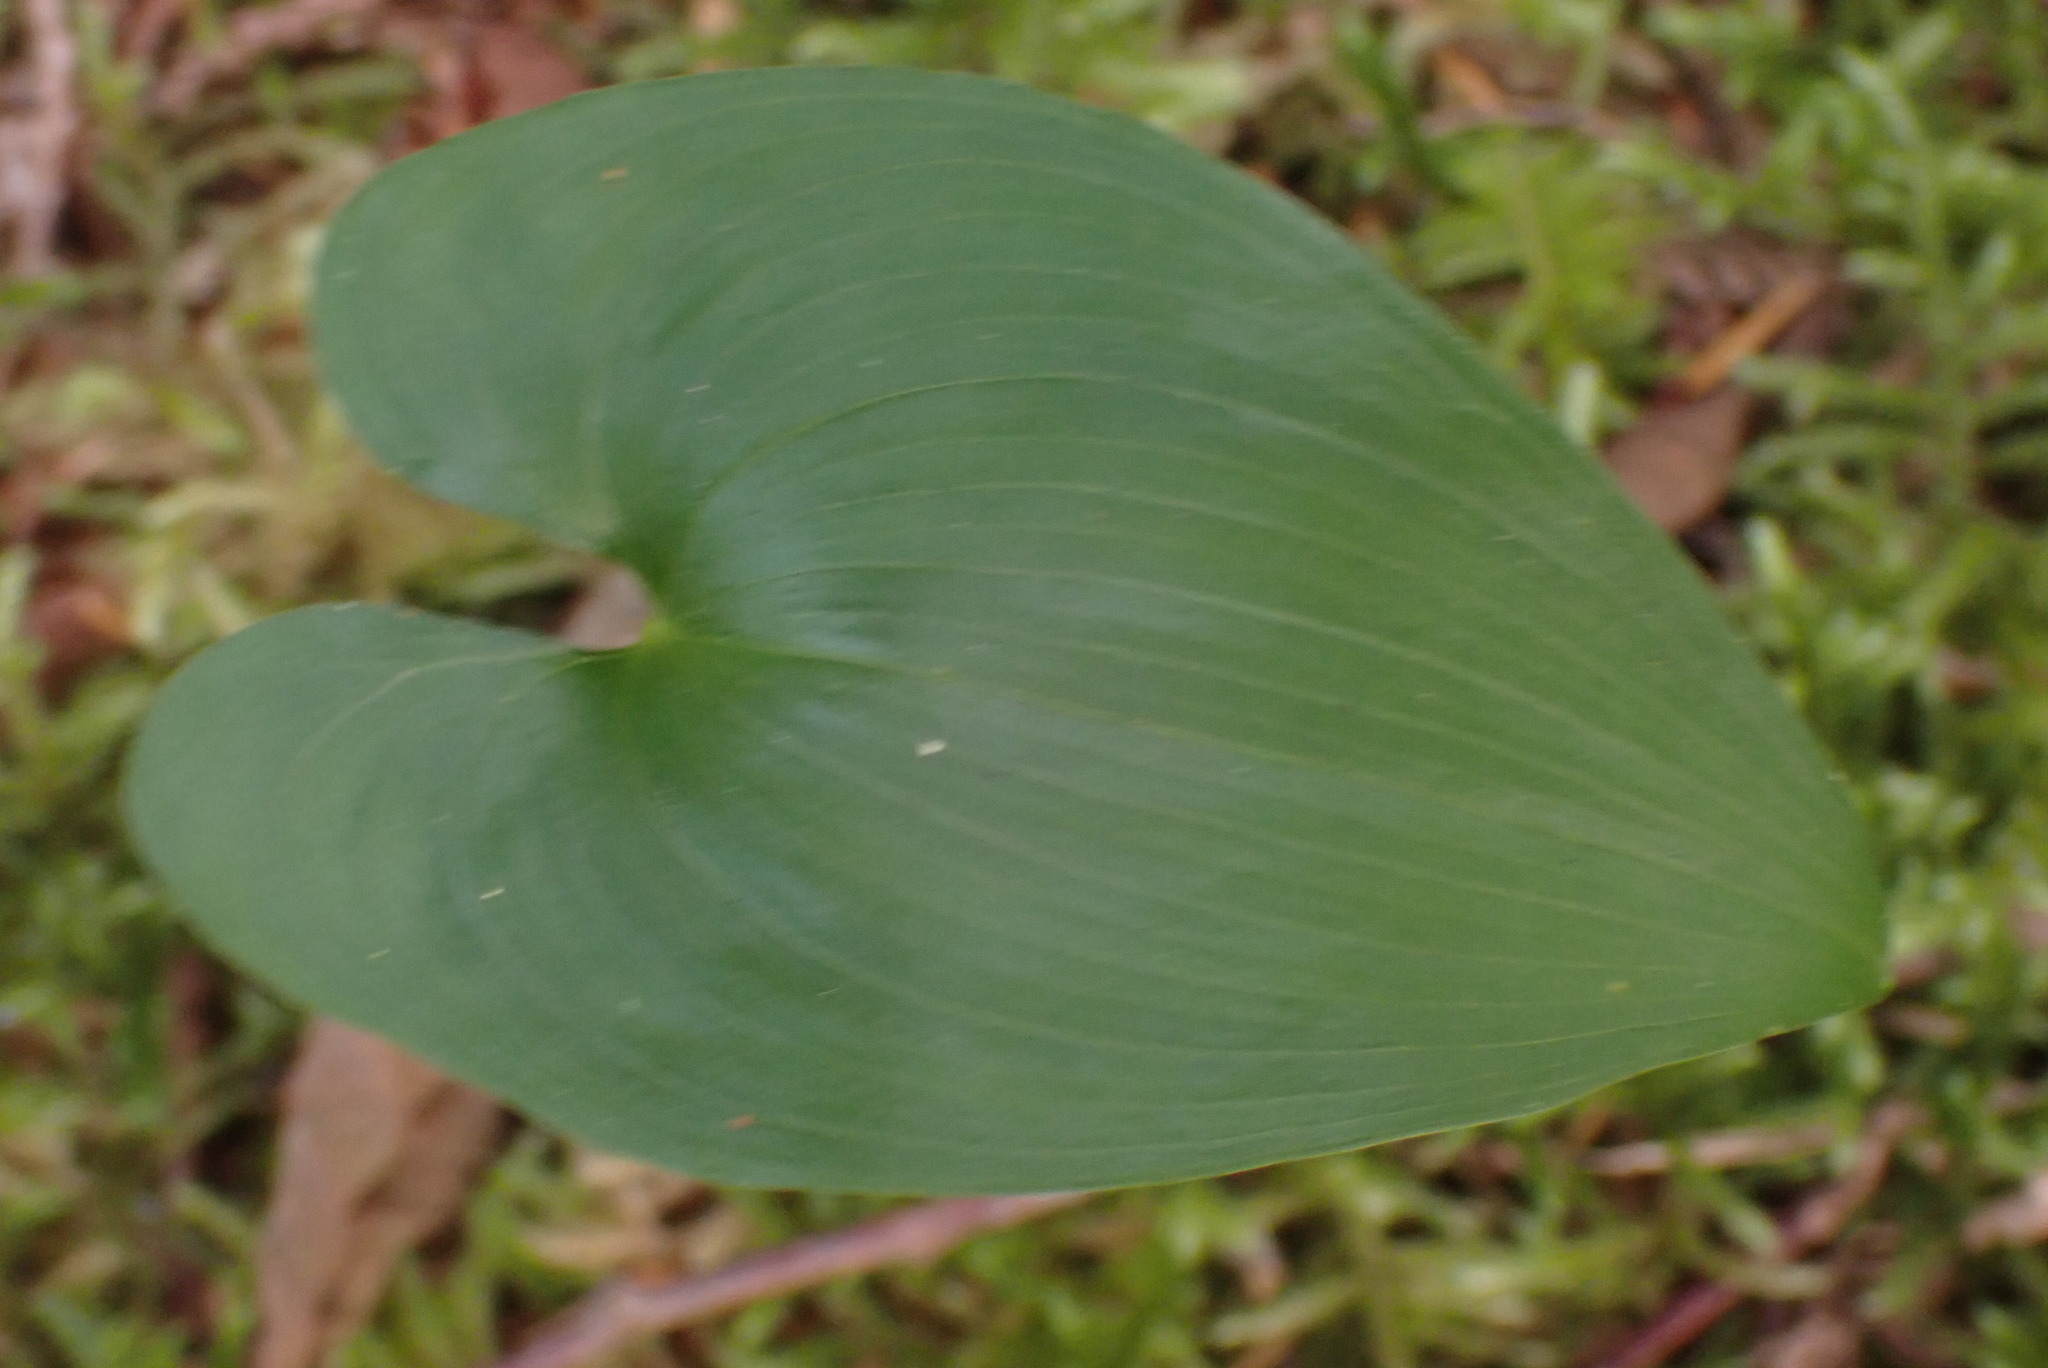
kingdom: Plantae
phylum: Tracheophyta
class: Liliopsida
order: Asparagales
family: Asparagaceae
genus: Maianthemum
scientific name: Maianthemum dilatatum
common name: False lily-of-the-valley
